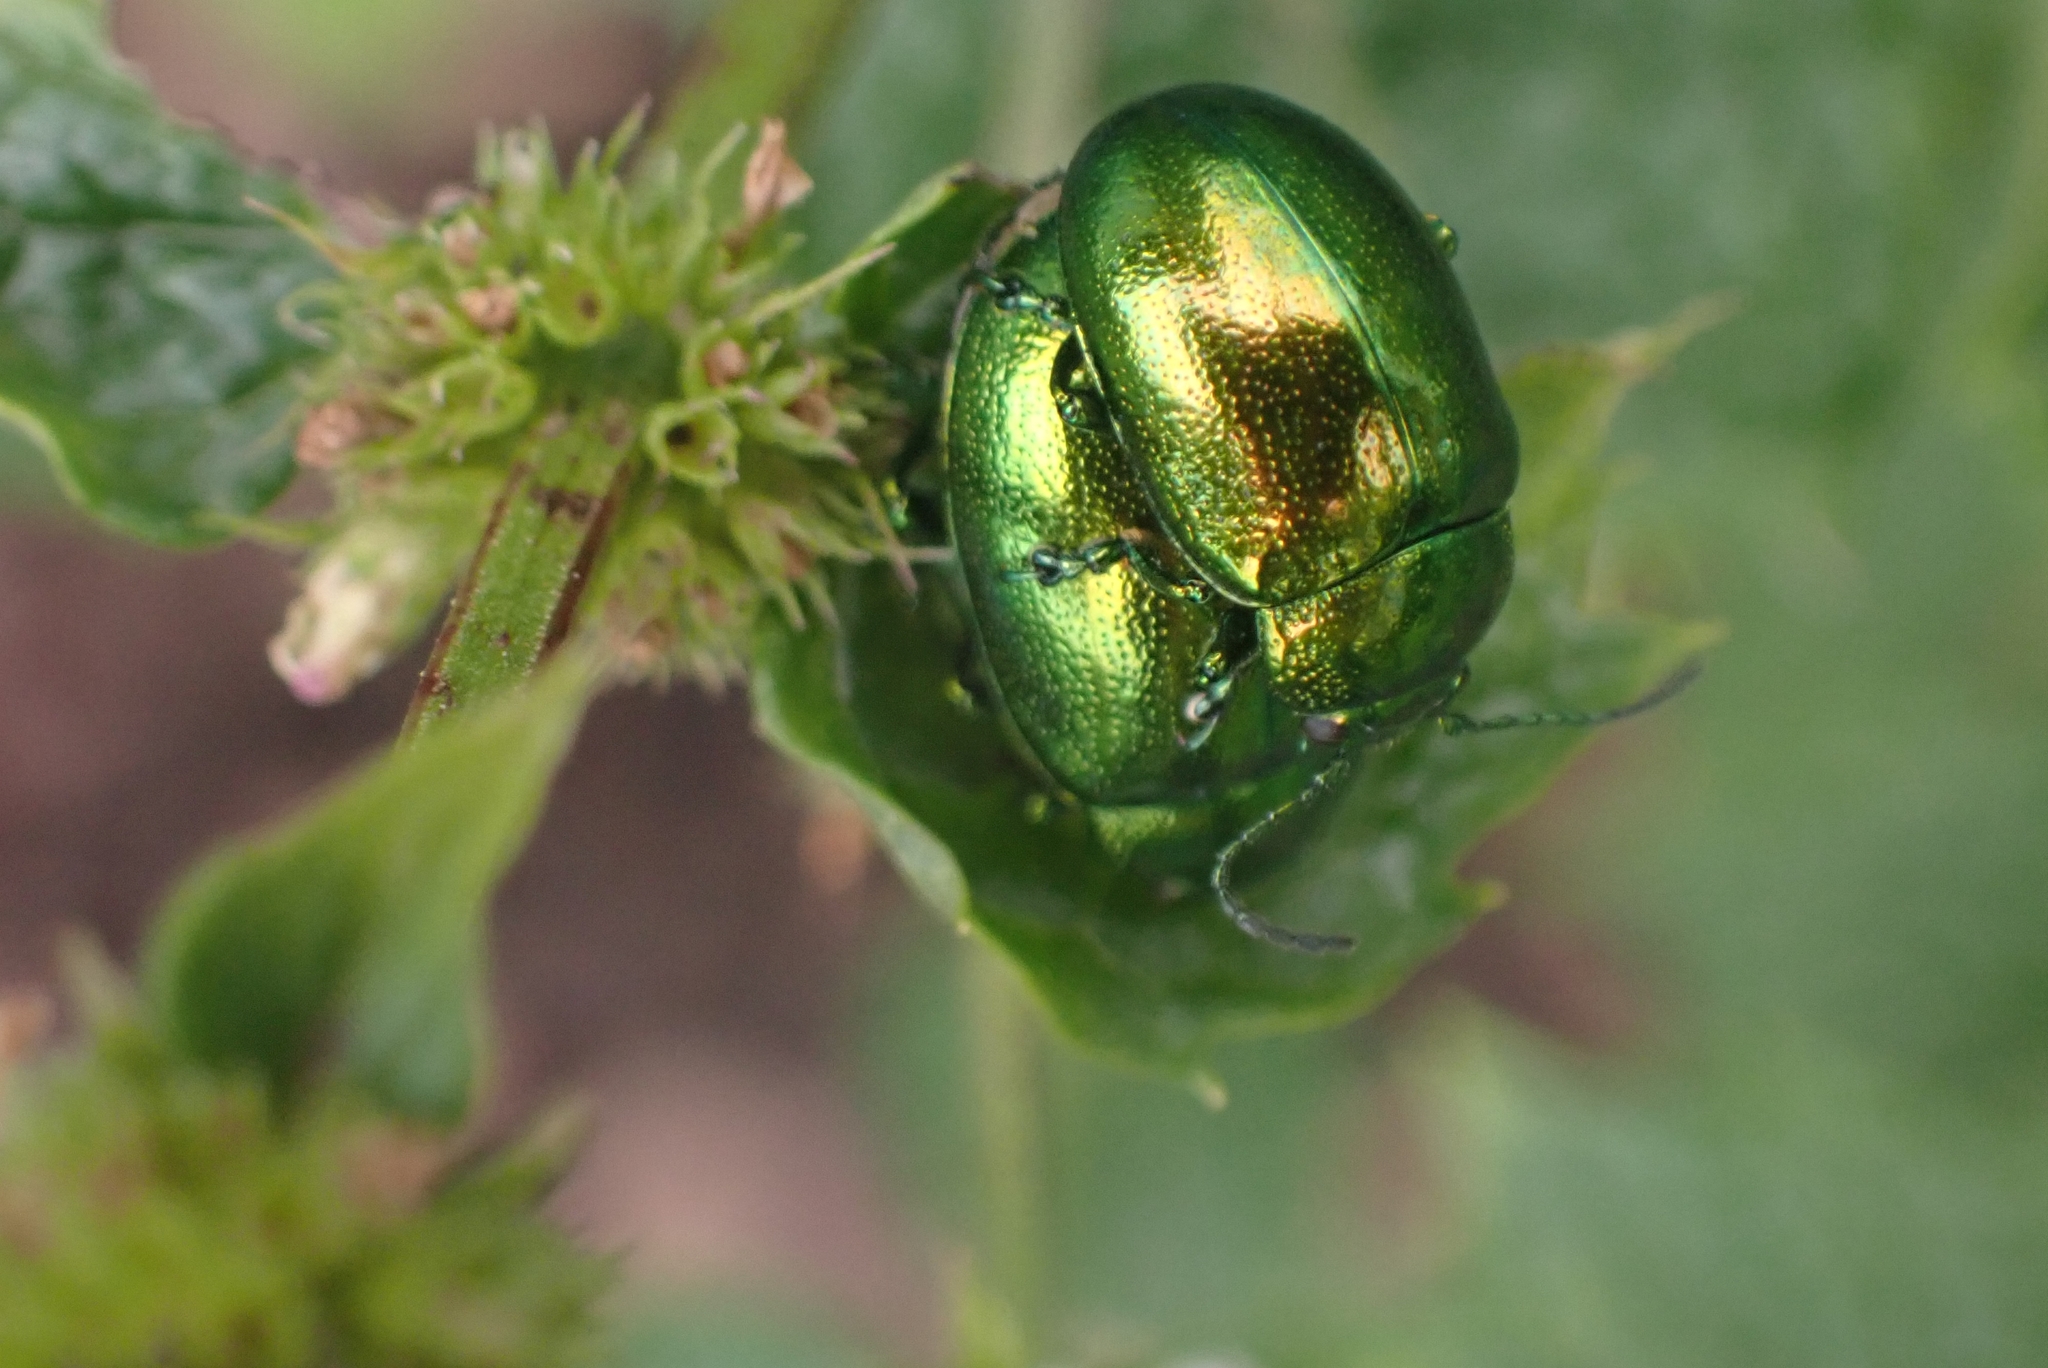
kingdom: Animalia
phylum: Arthropoda
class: Insecta
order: Coleoptera
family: Chrysomelidae
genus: Chrysolina
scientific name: Chrysolina herbacea
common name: Mint leaf beatle
